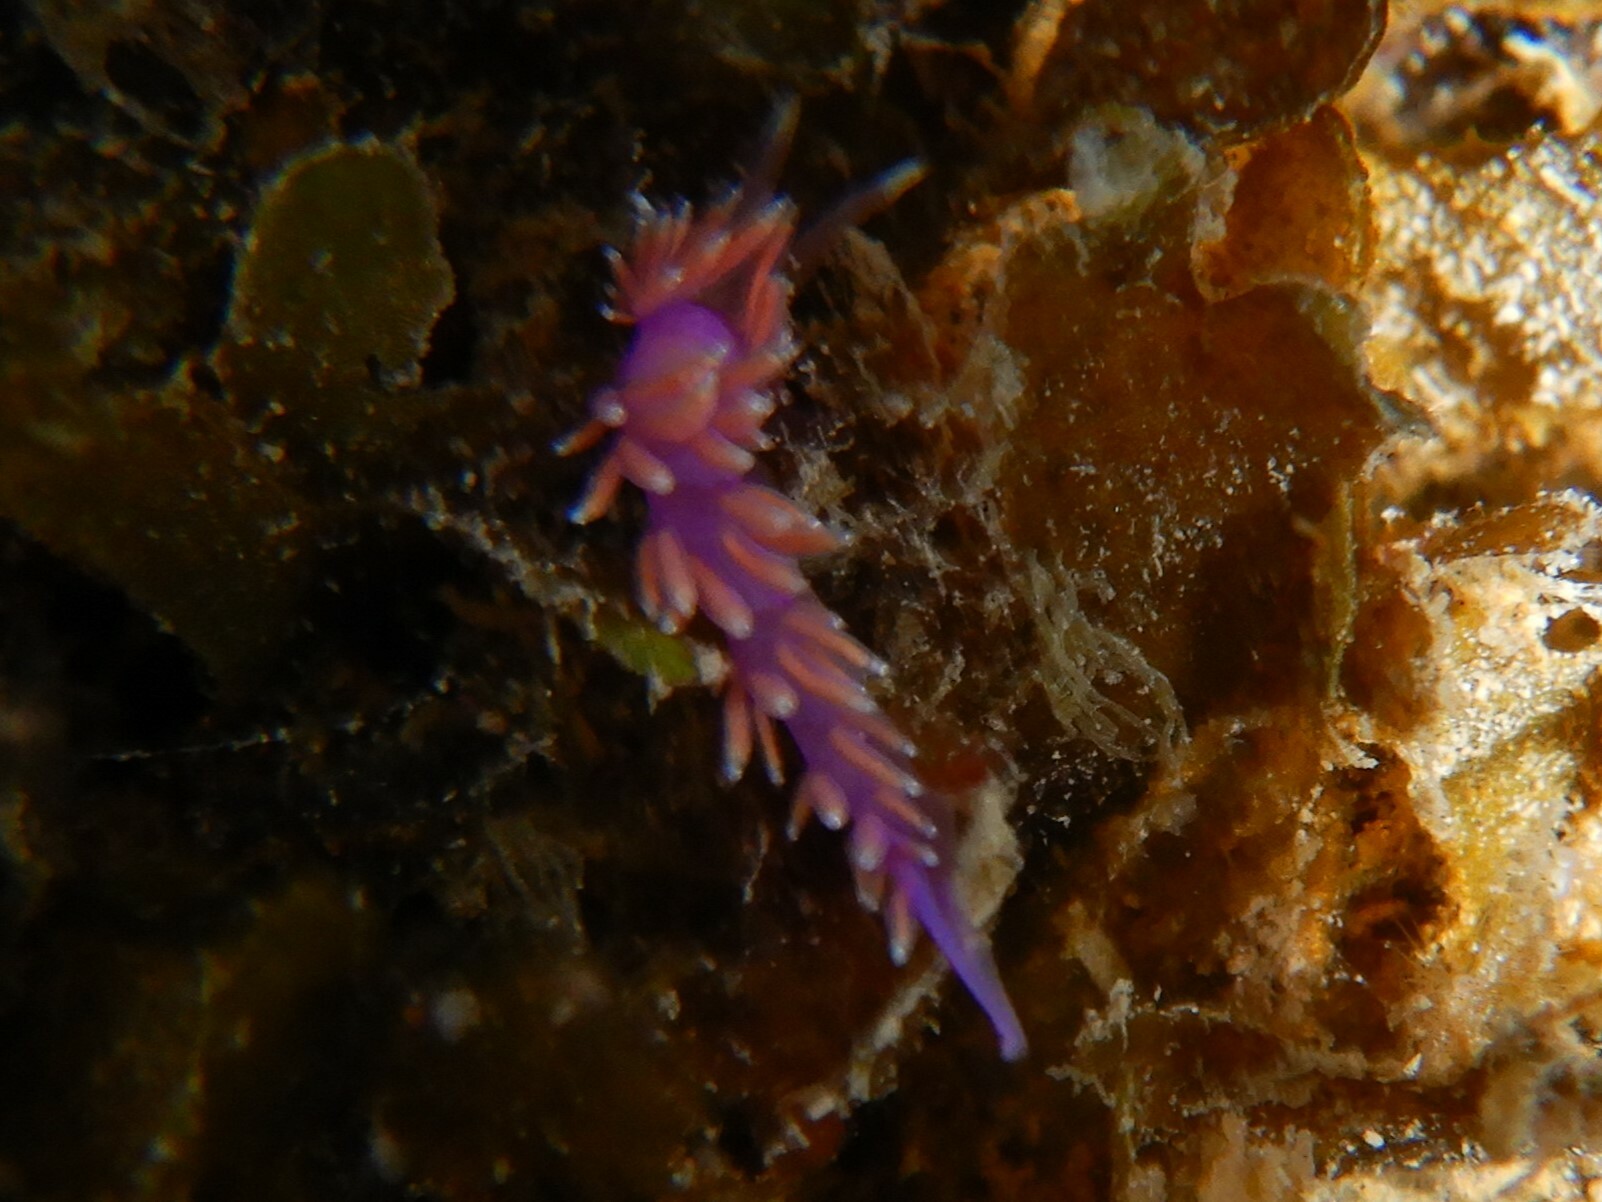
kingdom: Animalia
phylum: Mollusca
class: Gastropoda
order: Nudibranchia
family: Flabellinidae
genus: Edmundsella
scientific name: Edmundsella pedata
